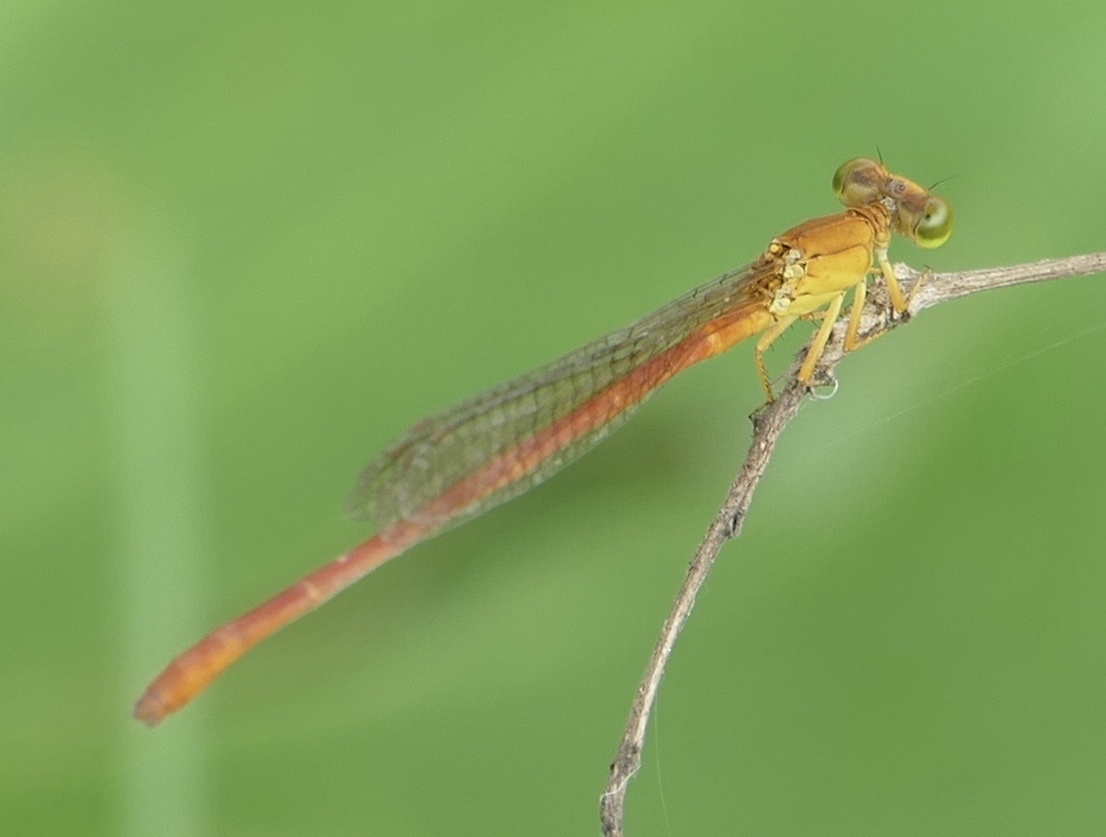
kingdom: Animalia
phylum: Arthropoda
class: Insecta
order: Odonata
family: Coenagrionidae
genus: Ceriagrion
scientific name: Ceriagrion glabrum
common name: Common pond damsel
